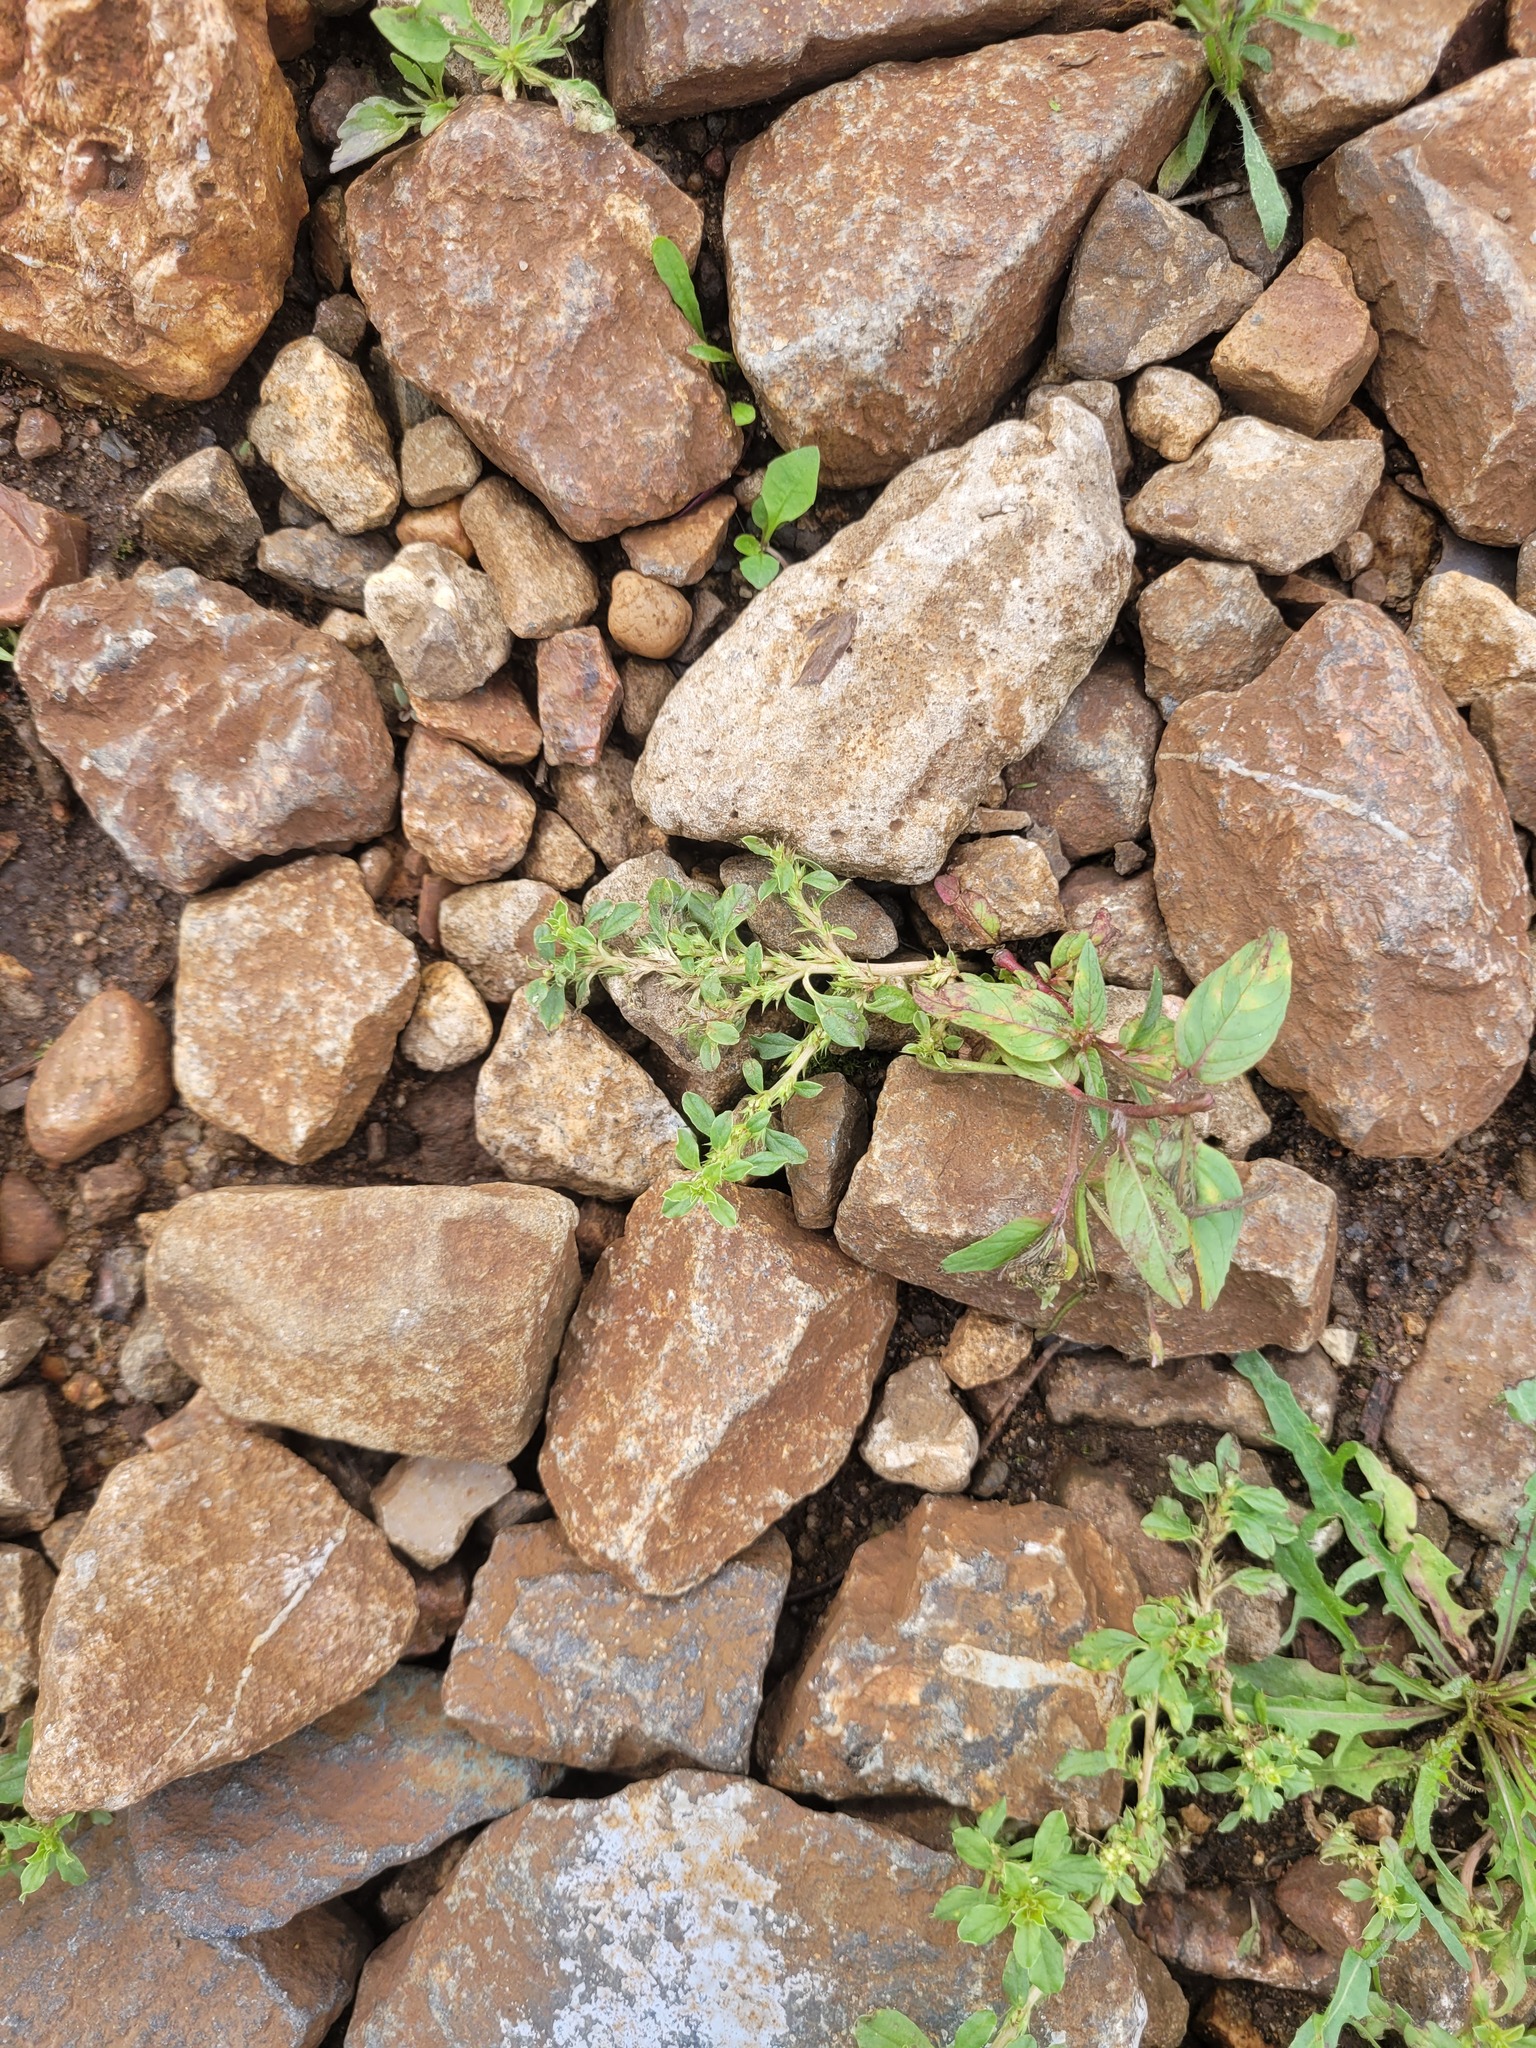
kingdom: Plantae
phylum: Tracheophyta
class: Magnoliopsida
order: Caryophyllales
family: Amaranthaceae
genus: Amaranthus
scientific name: Amaranthus albus
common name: White pigweed
